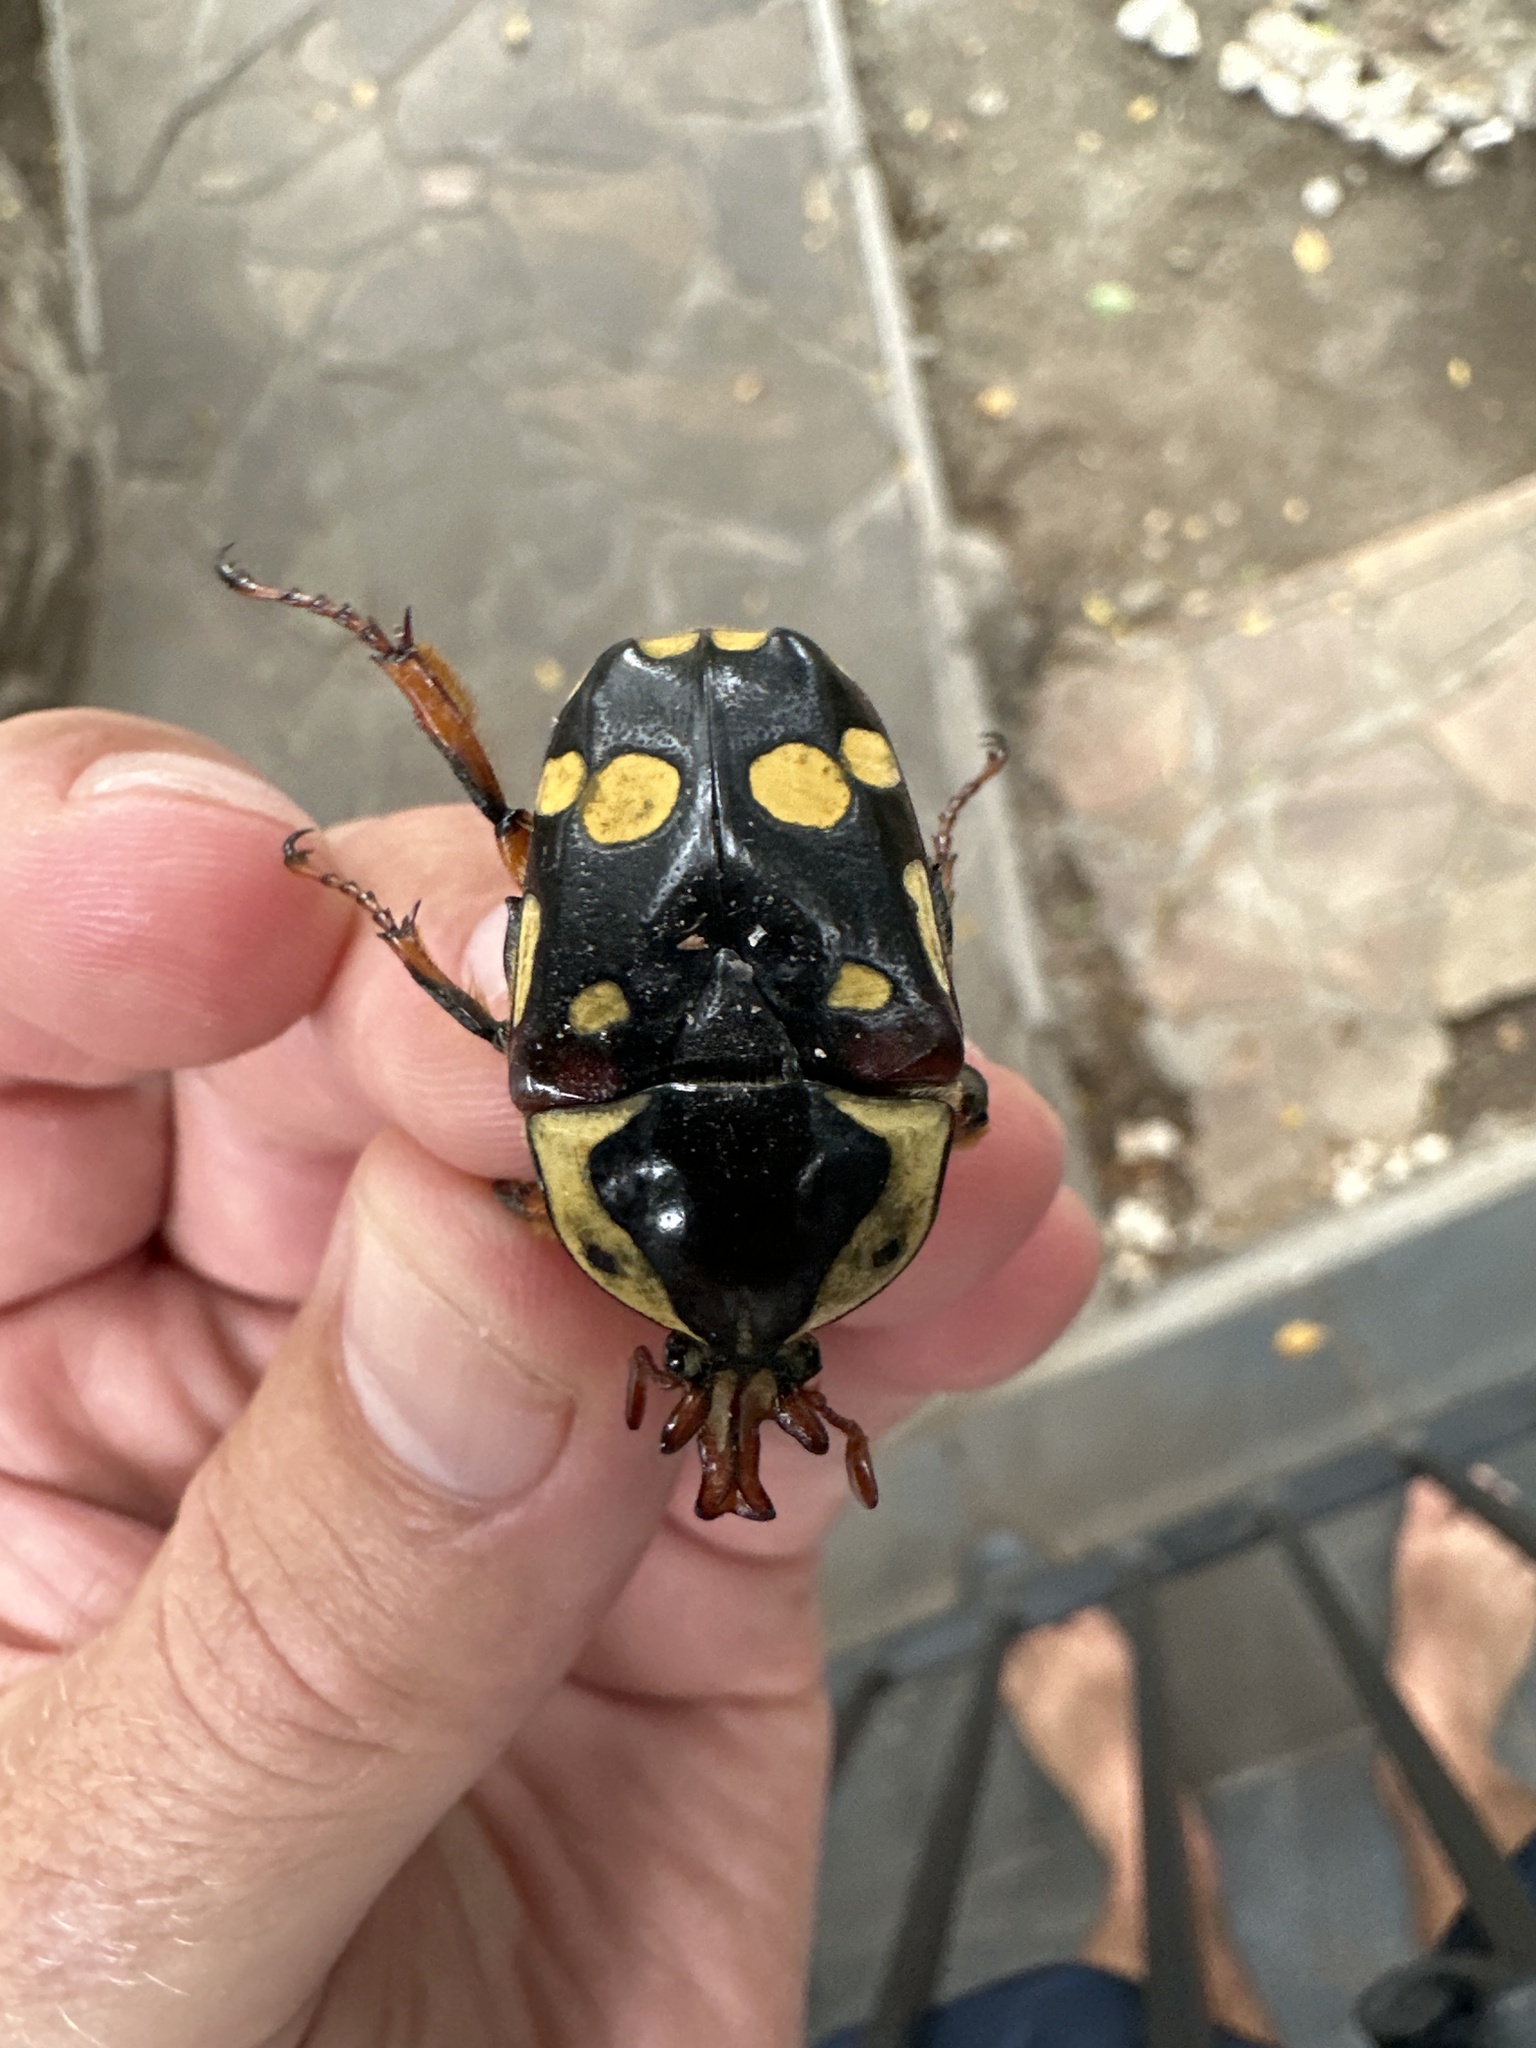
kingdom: Animalia
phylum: Arthropoda
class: Insecta
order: Coleoptera
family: Scarabaeidae
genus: Cheirolasia
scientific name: Cheirolasia burkei
